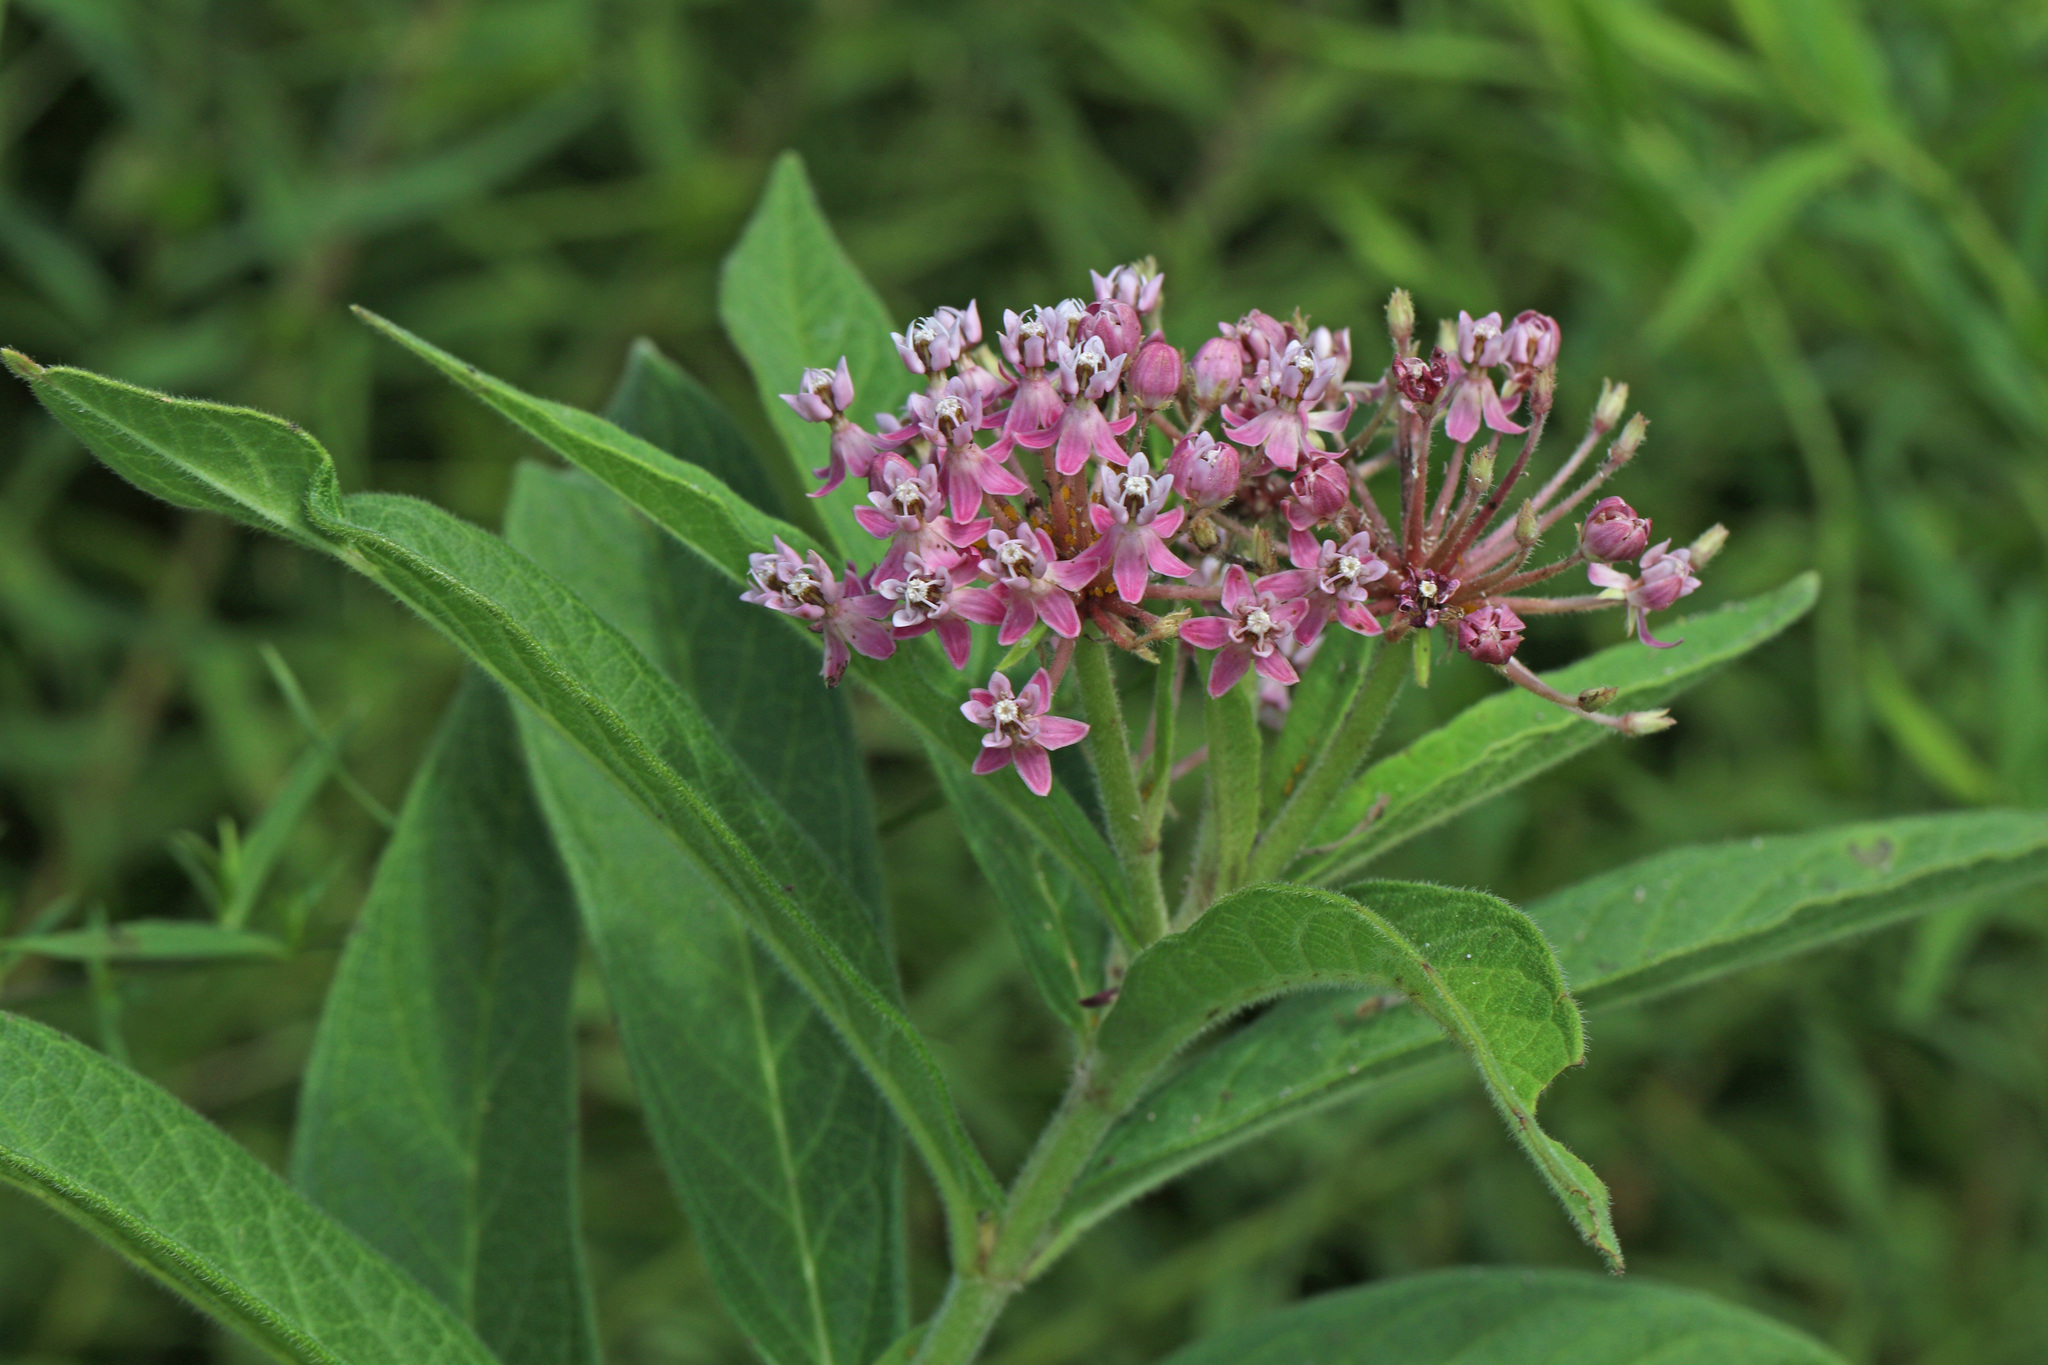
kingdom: Plantae
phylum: Tracheophyta
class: Magnoliopsida
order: Gentianales
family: Apocynaceae
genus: Asclepias
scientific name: Asclepias incarnata
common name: Swamp milkweed
